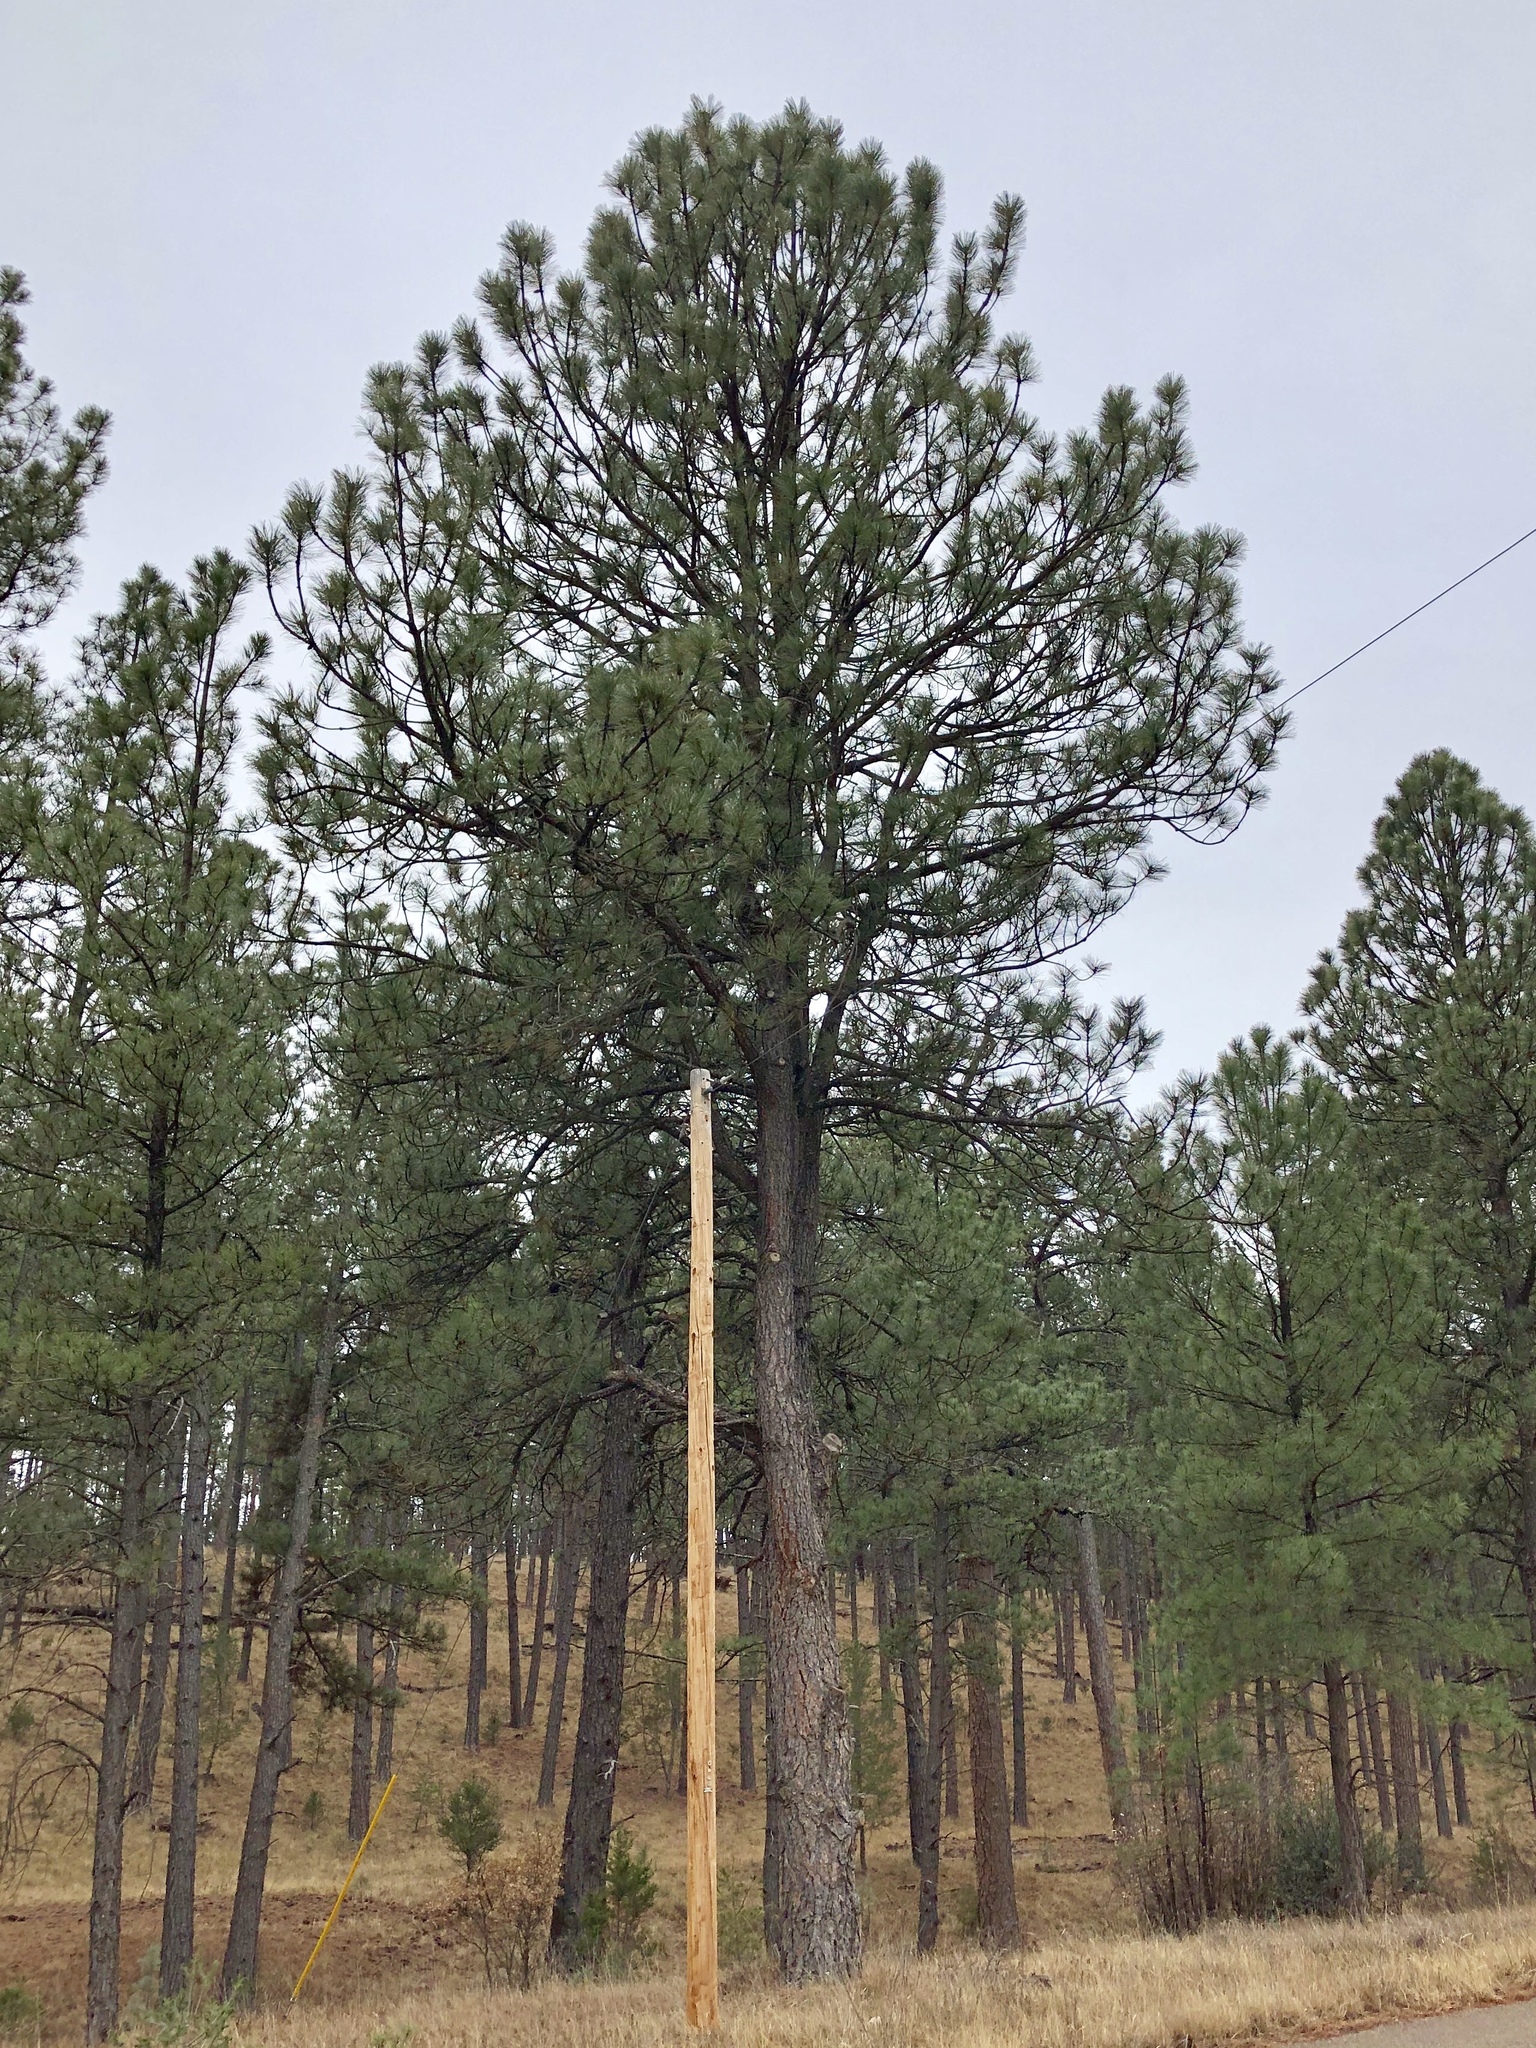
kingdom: Plantae
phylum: Tracheophyta
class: Pinopsida
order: Pinales
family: Pinaceae
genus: Pinus
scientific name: Pinus ponderosa
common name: Western yellow-pine
